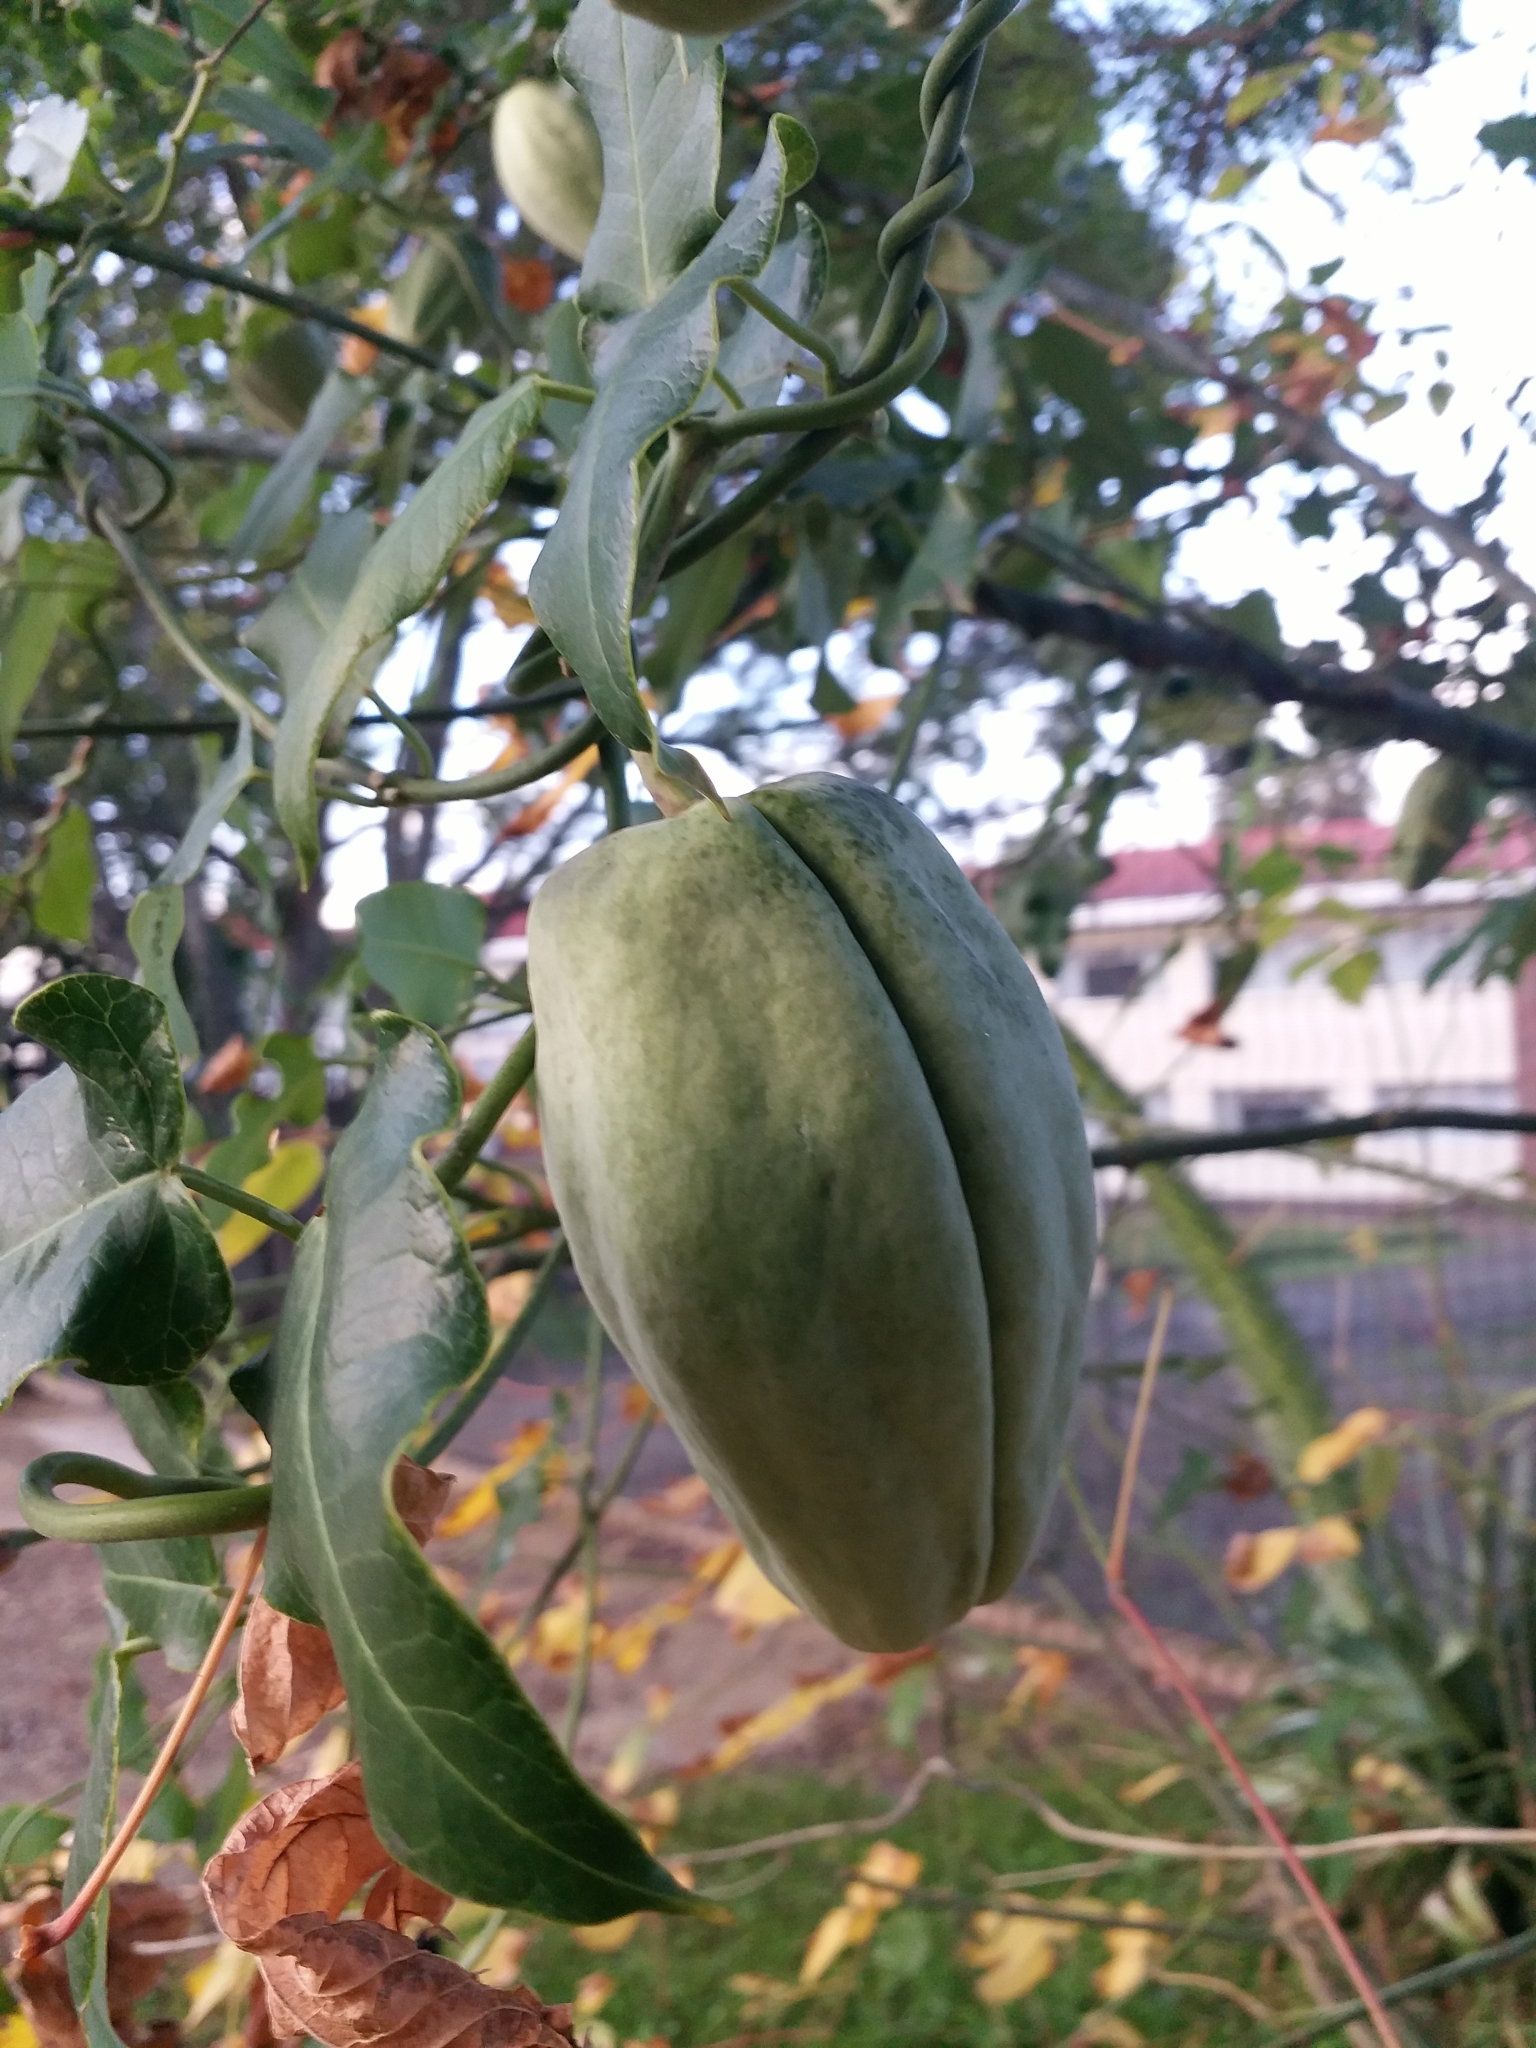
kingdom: Plantae
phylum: Tracheophyta
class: Magnoliopsida
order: Gentianales
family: Apocynaceae
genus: Araujia
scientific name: Araujia sericifera
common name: White bladderflower
